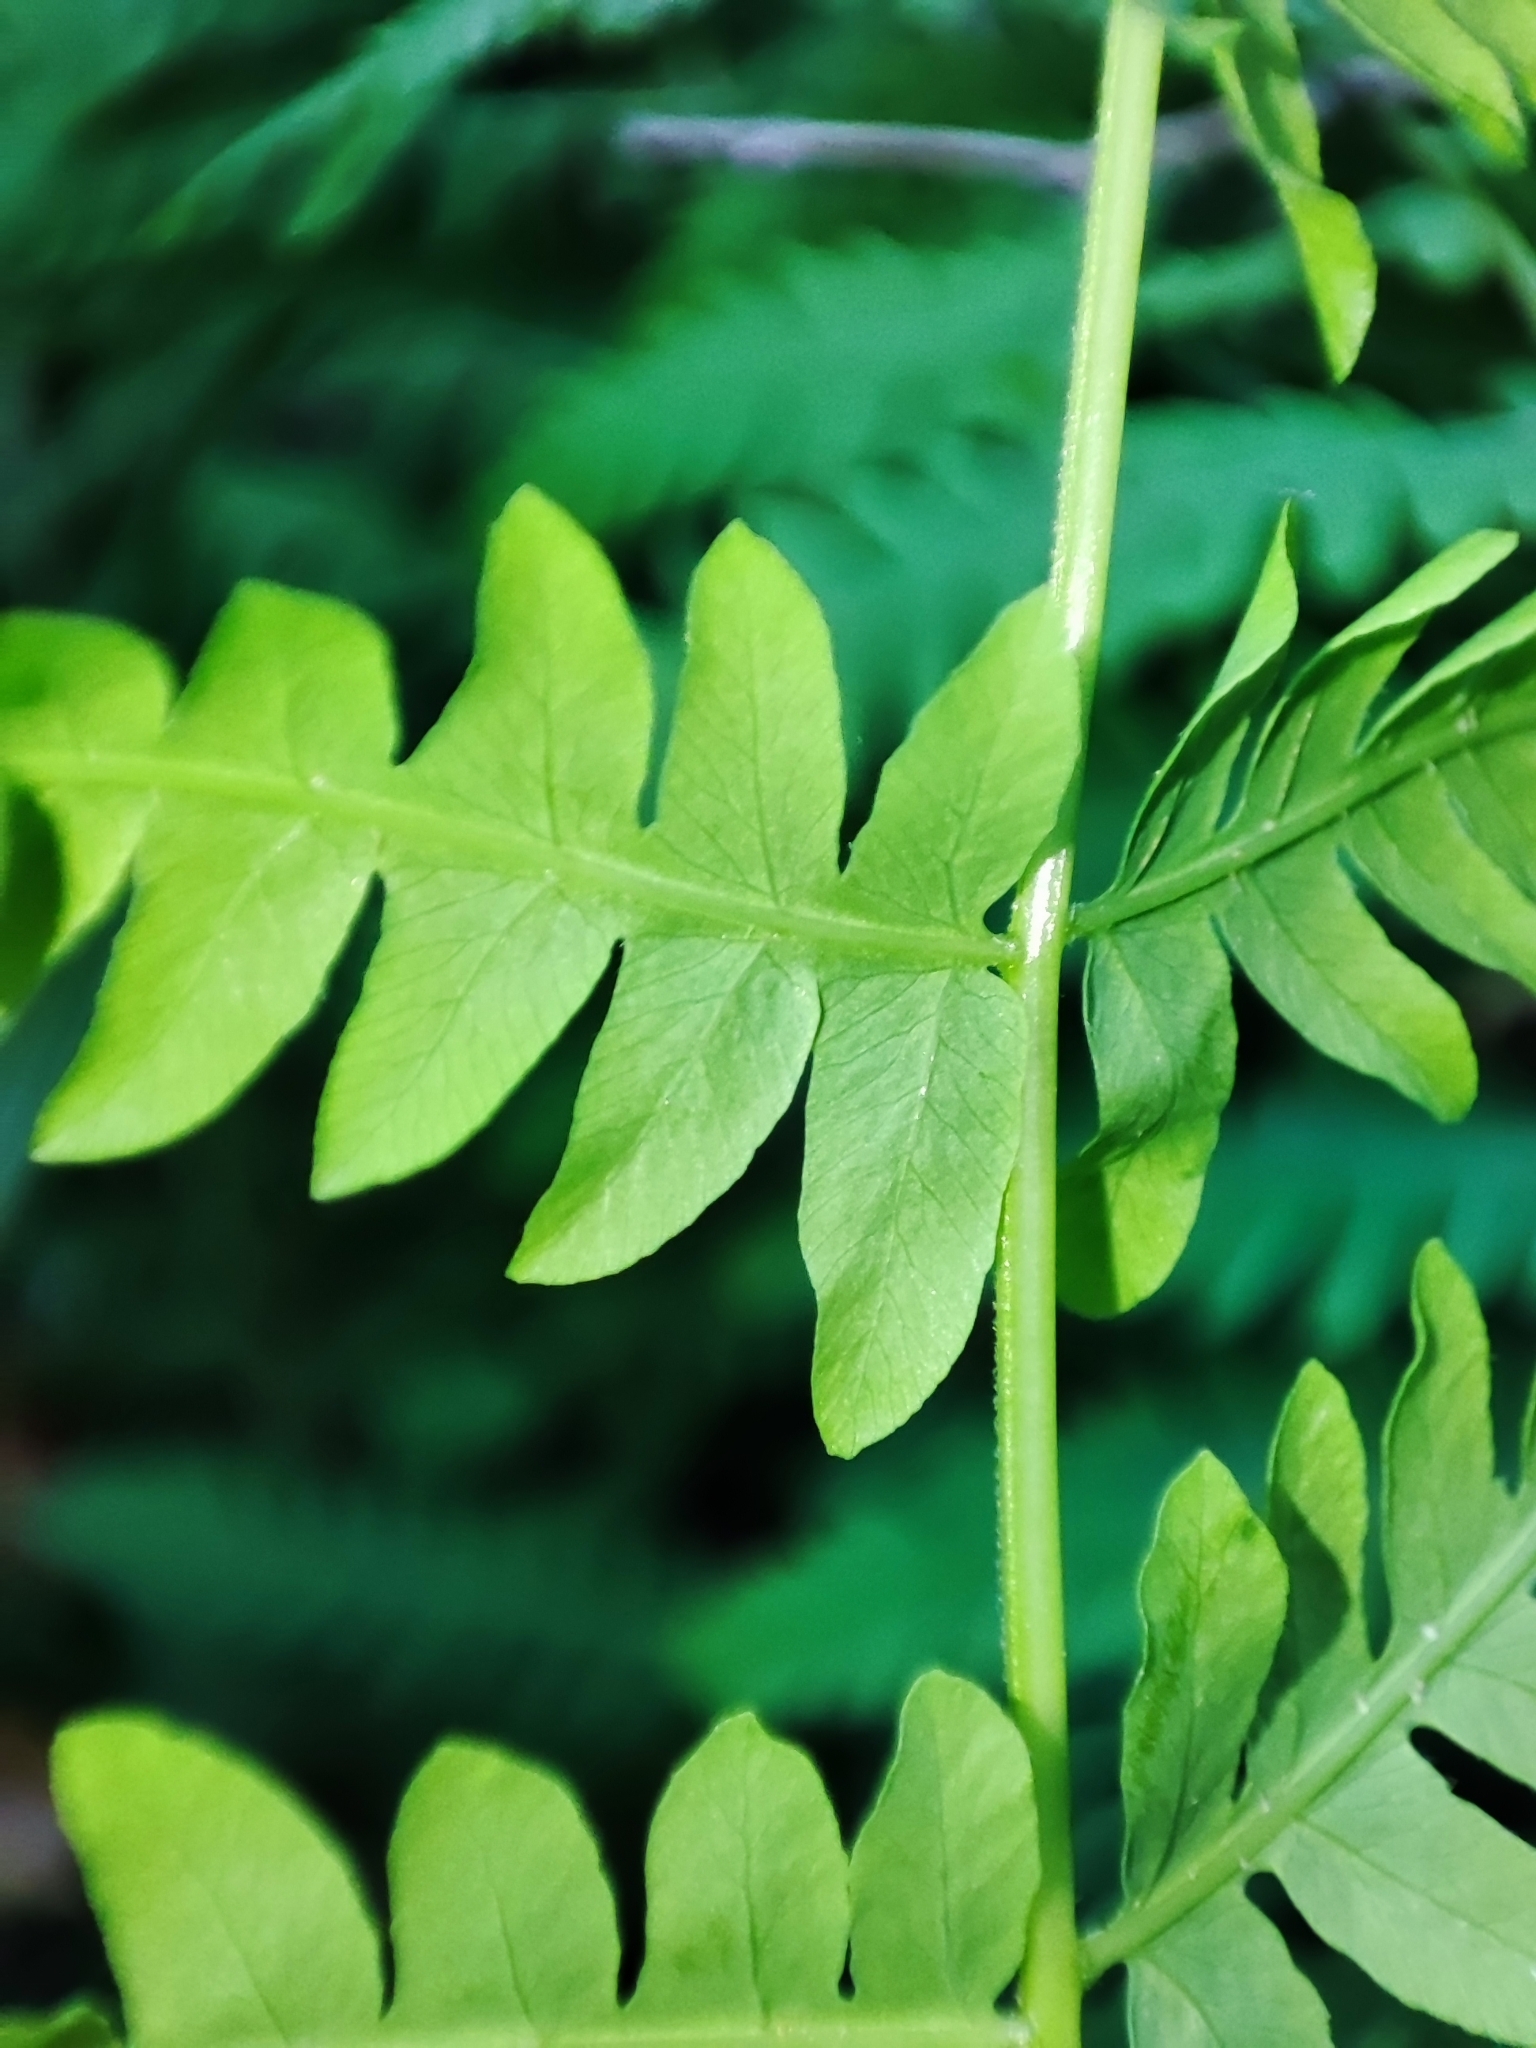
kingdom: Plantae
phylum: Tracheophyta
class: Polypodiopsida
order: Polypodiales
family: Thelypteridaceae
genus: Thelypteris
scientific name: Thelypteris palustris
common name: Marsh fern
